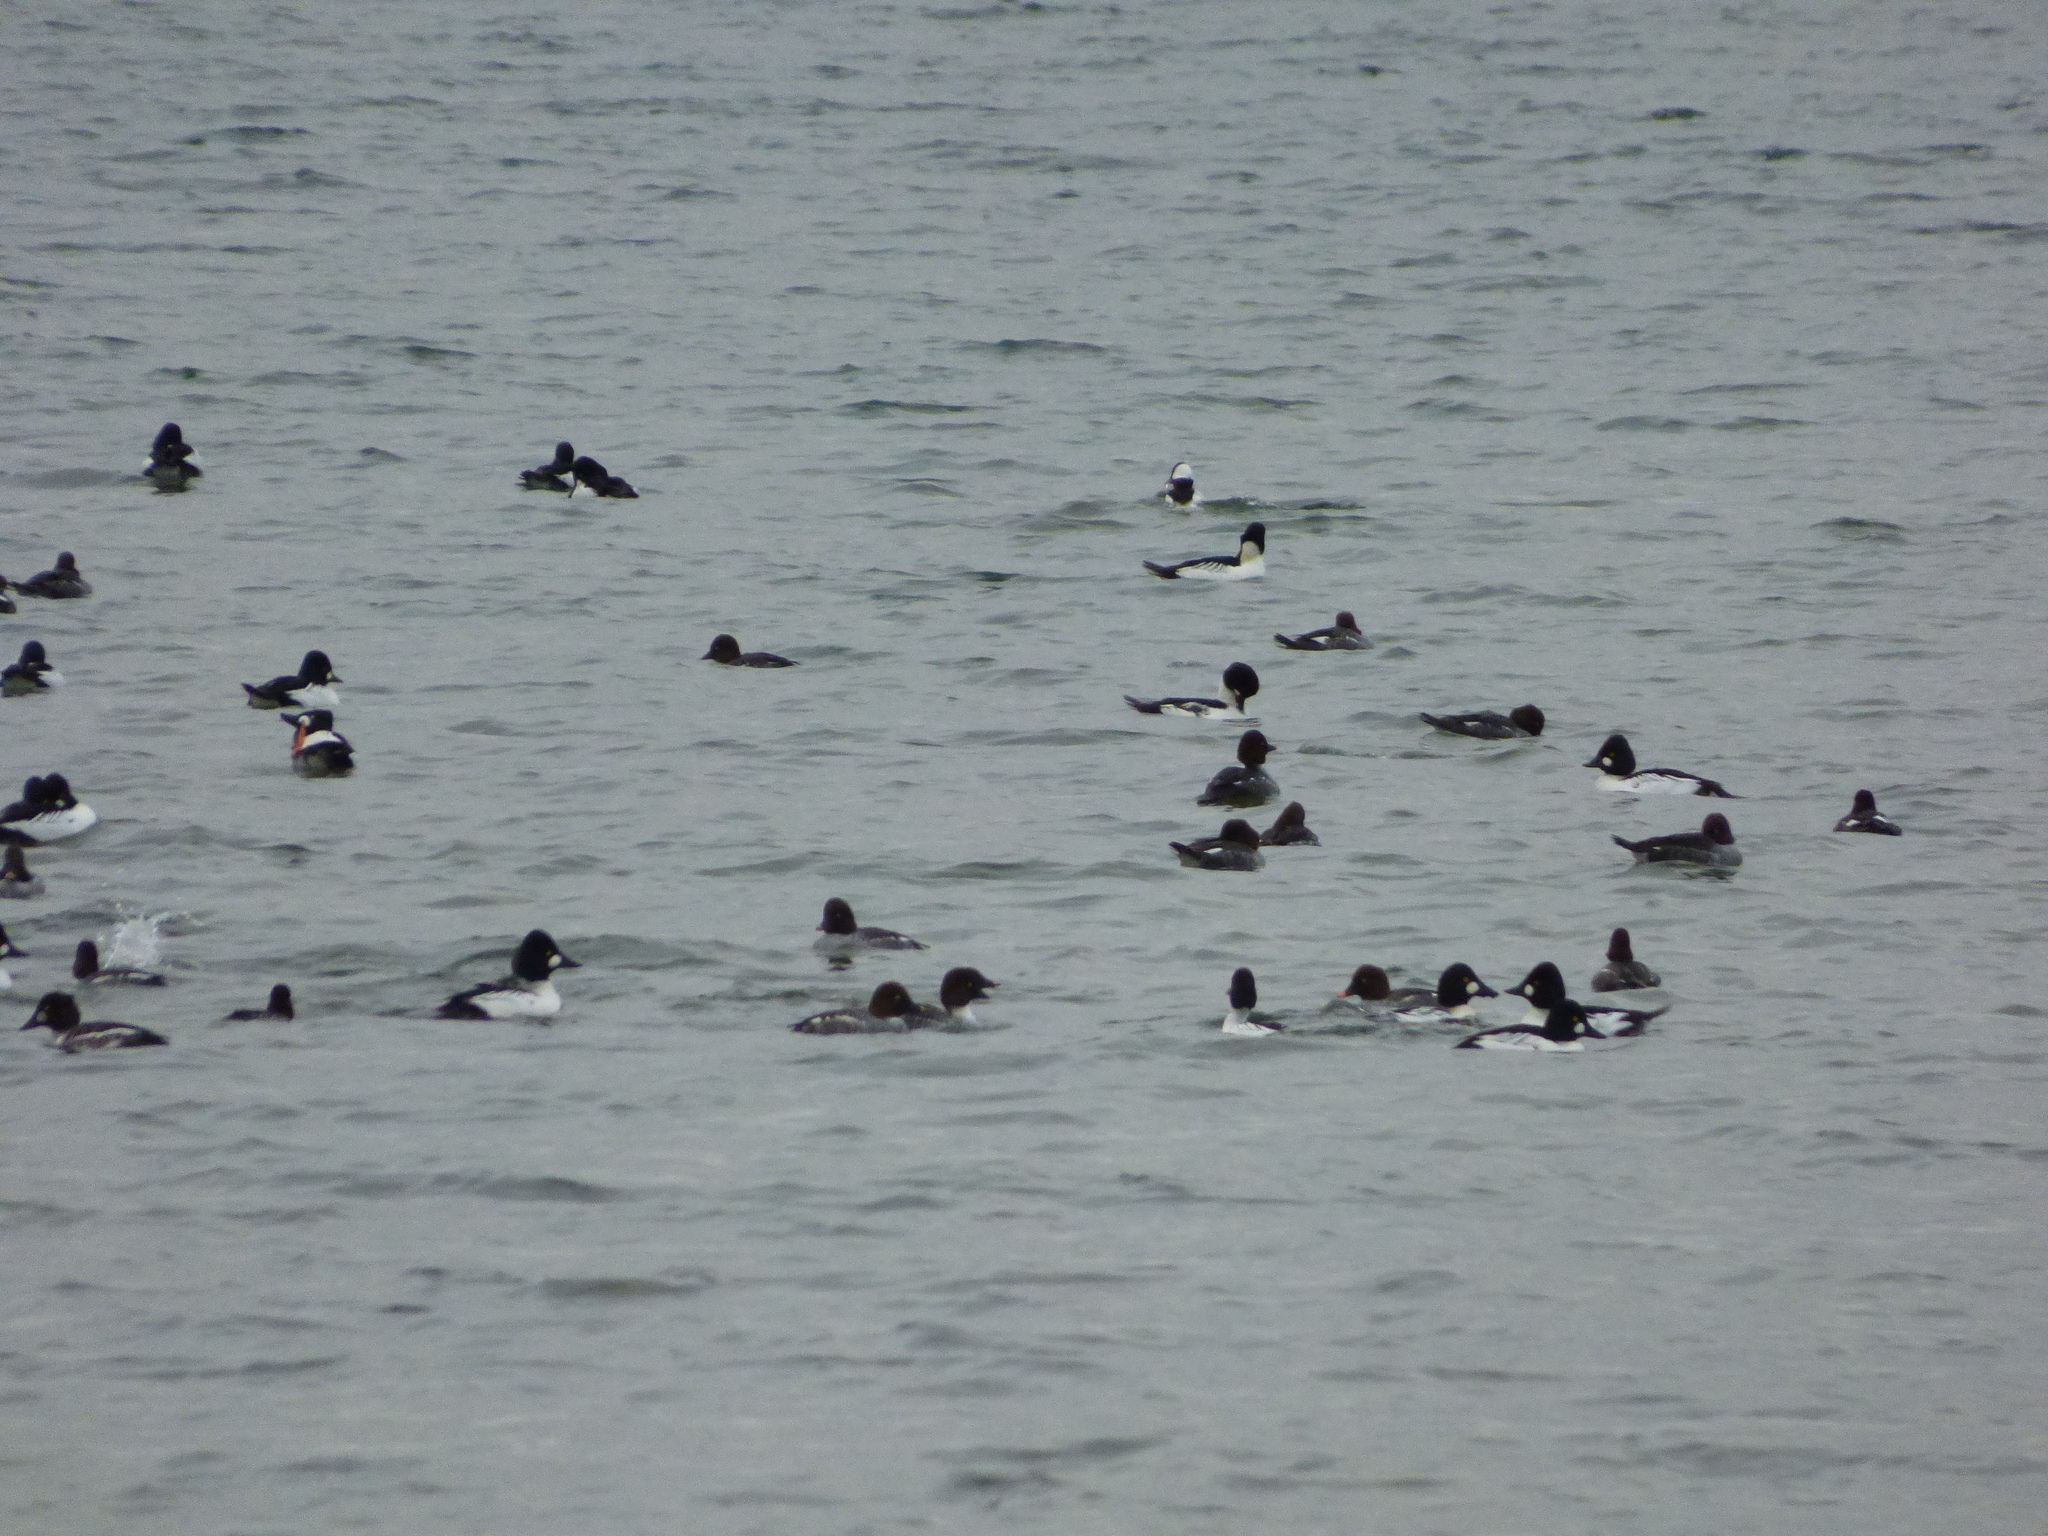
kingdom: Animalia
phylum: Chordata
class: Aves
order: Anseriformes
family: Anatidae
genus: Bucephala
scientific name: Bucephala clangula
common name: Common goldeneye
